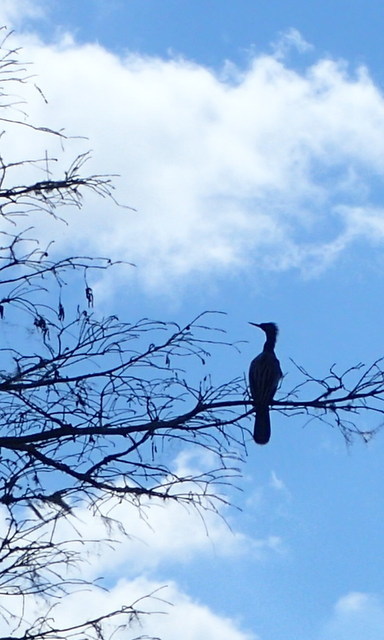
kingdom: Animalia
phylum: Chordata
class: Aves
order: Suliformes
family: Anhingidae
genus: Anhinga
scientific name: Anhinga anhinga
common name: Anhinga
